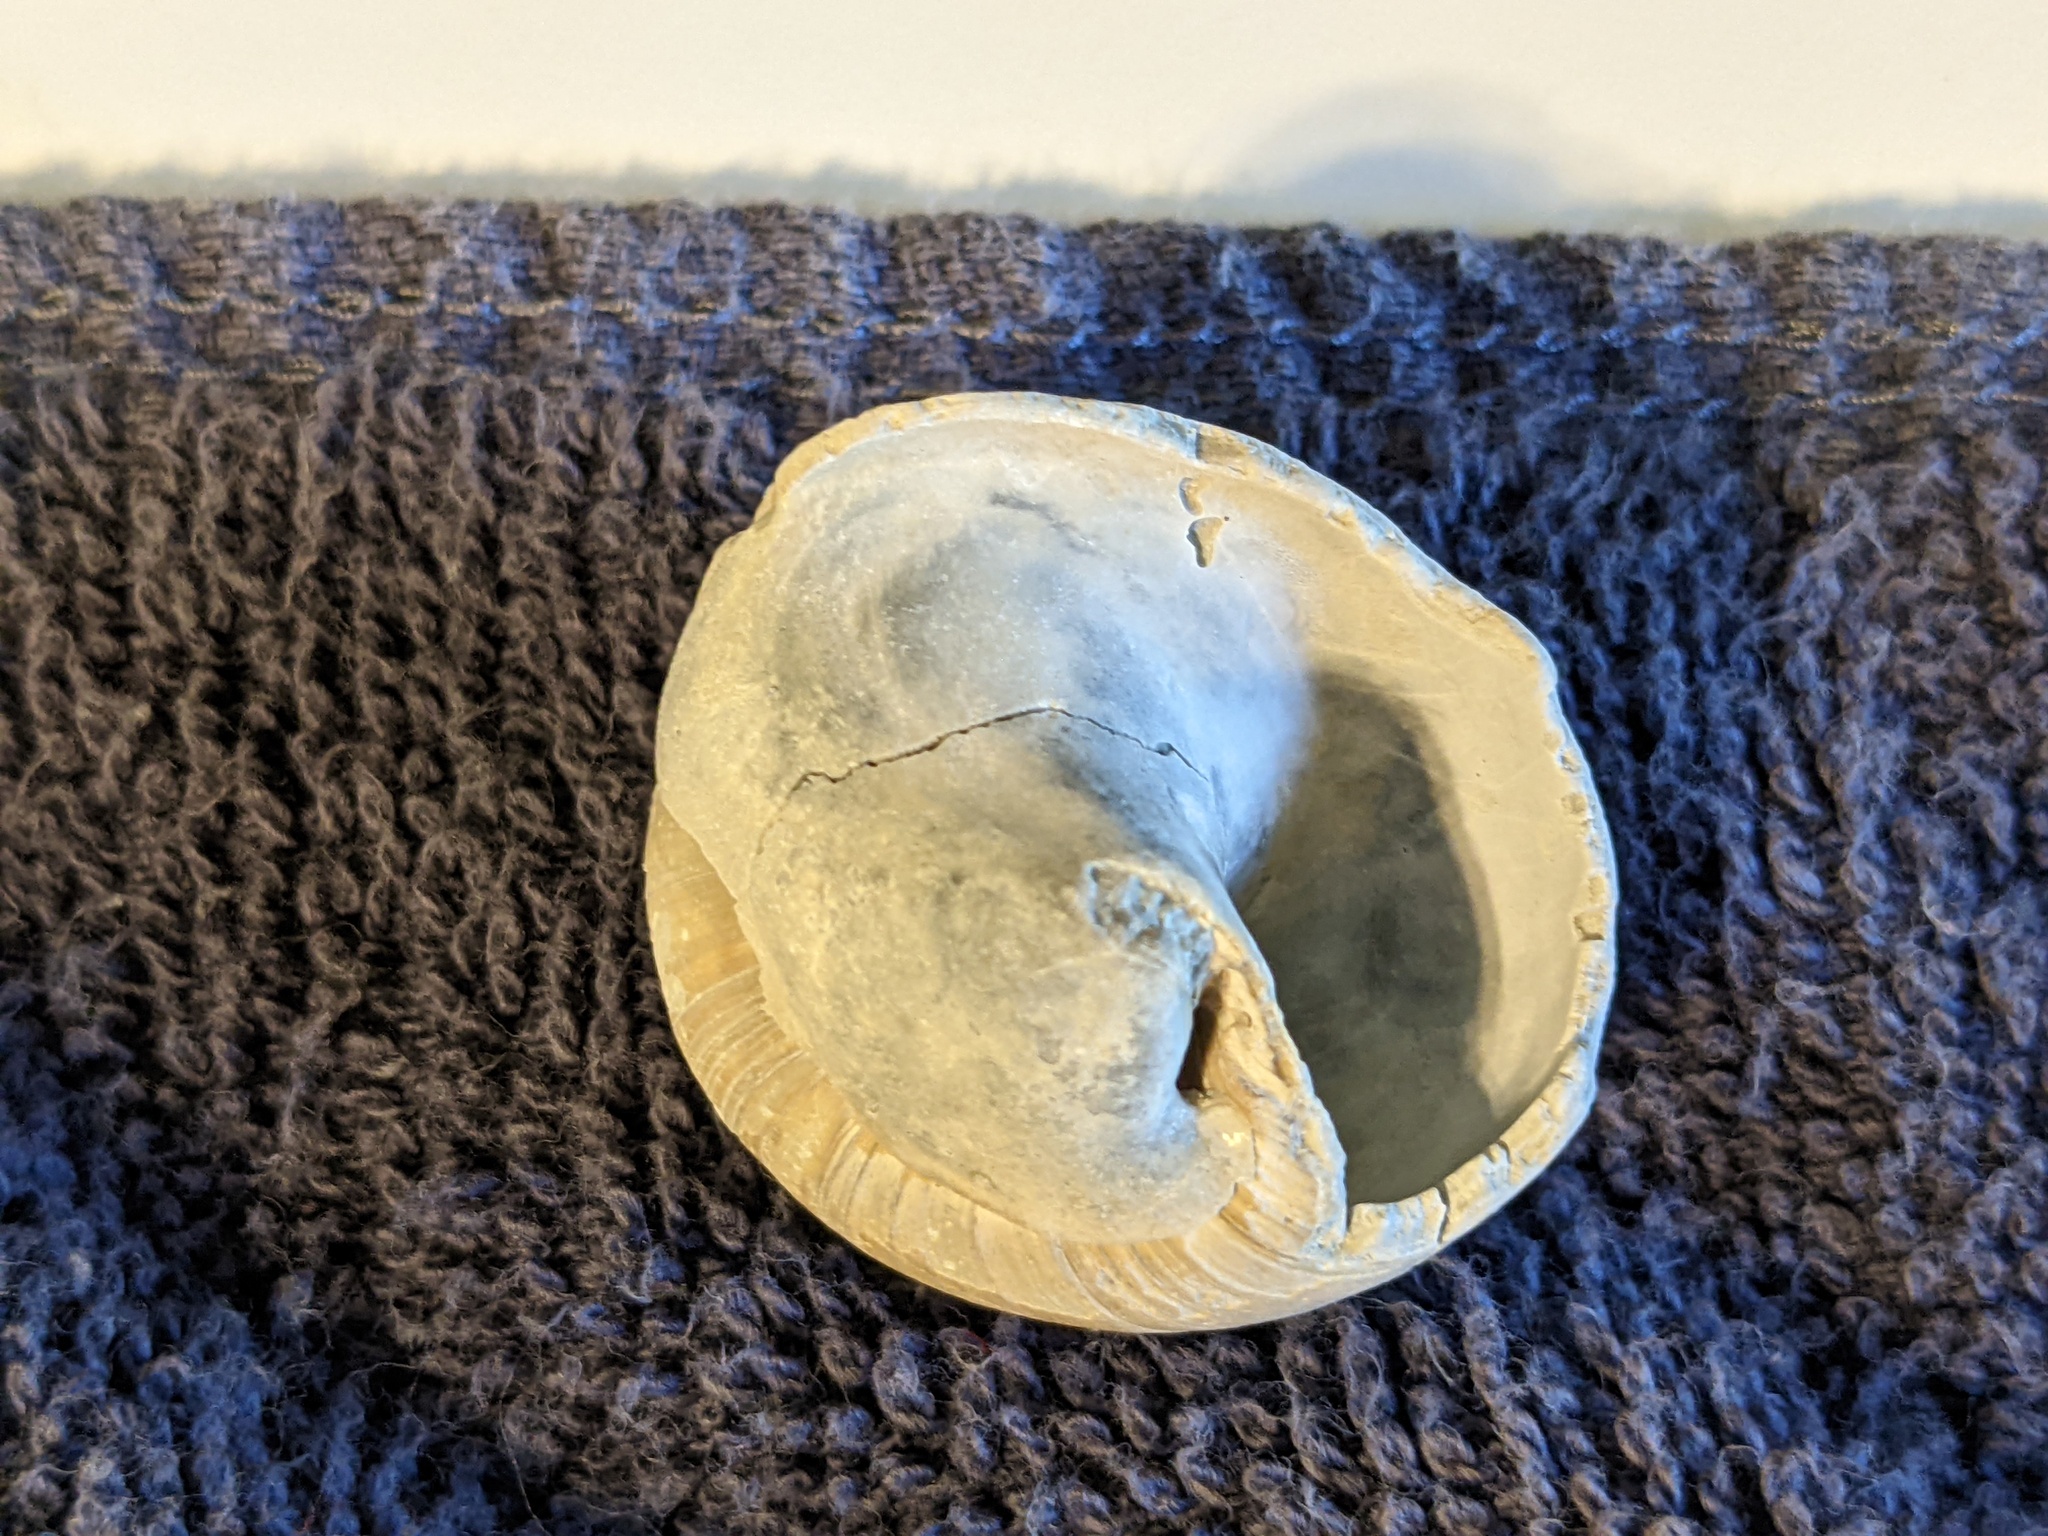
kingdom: Animalia
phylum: Mollusca
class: Gastropoda
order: Littorinimorpha
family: Naticidae
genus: Neverita
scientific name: Neverita duplicata
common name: Lobed moonsnail
